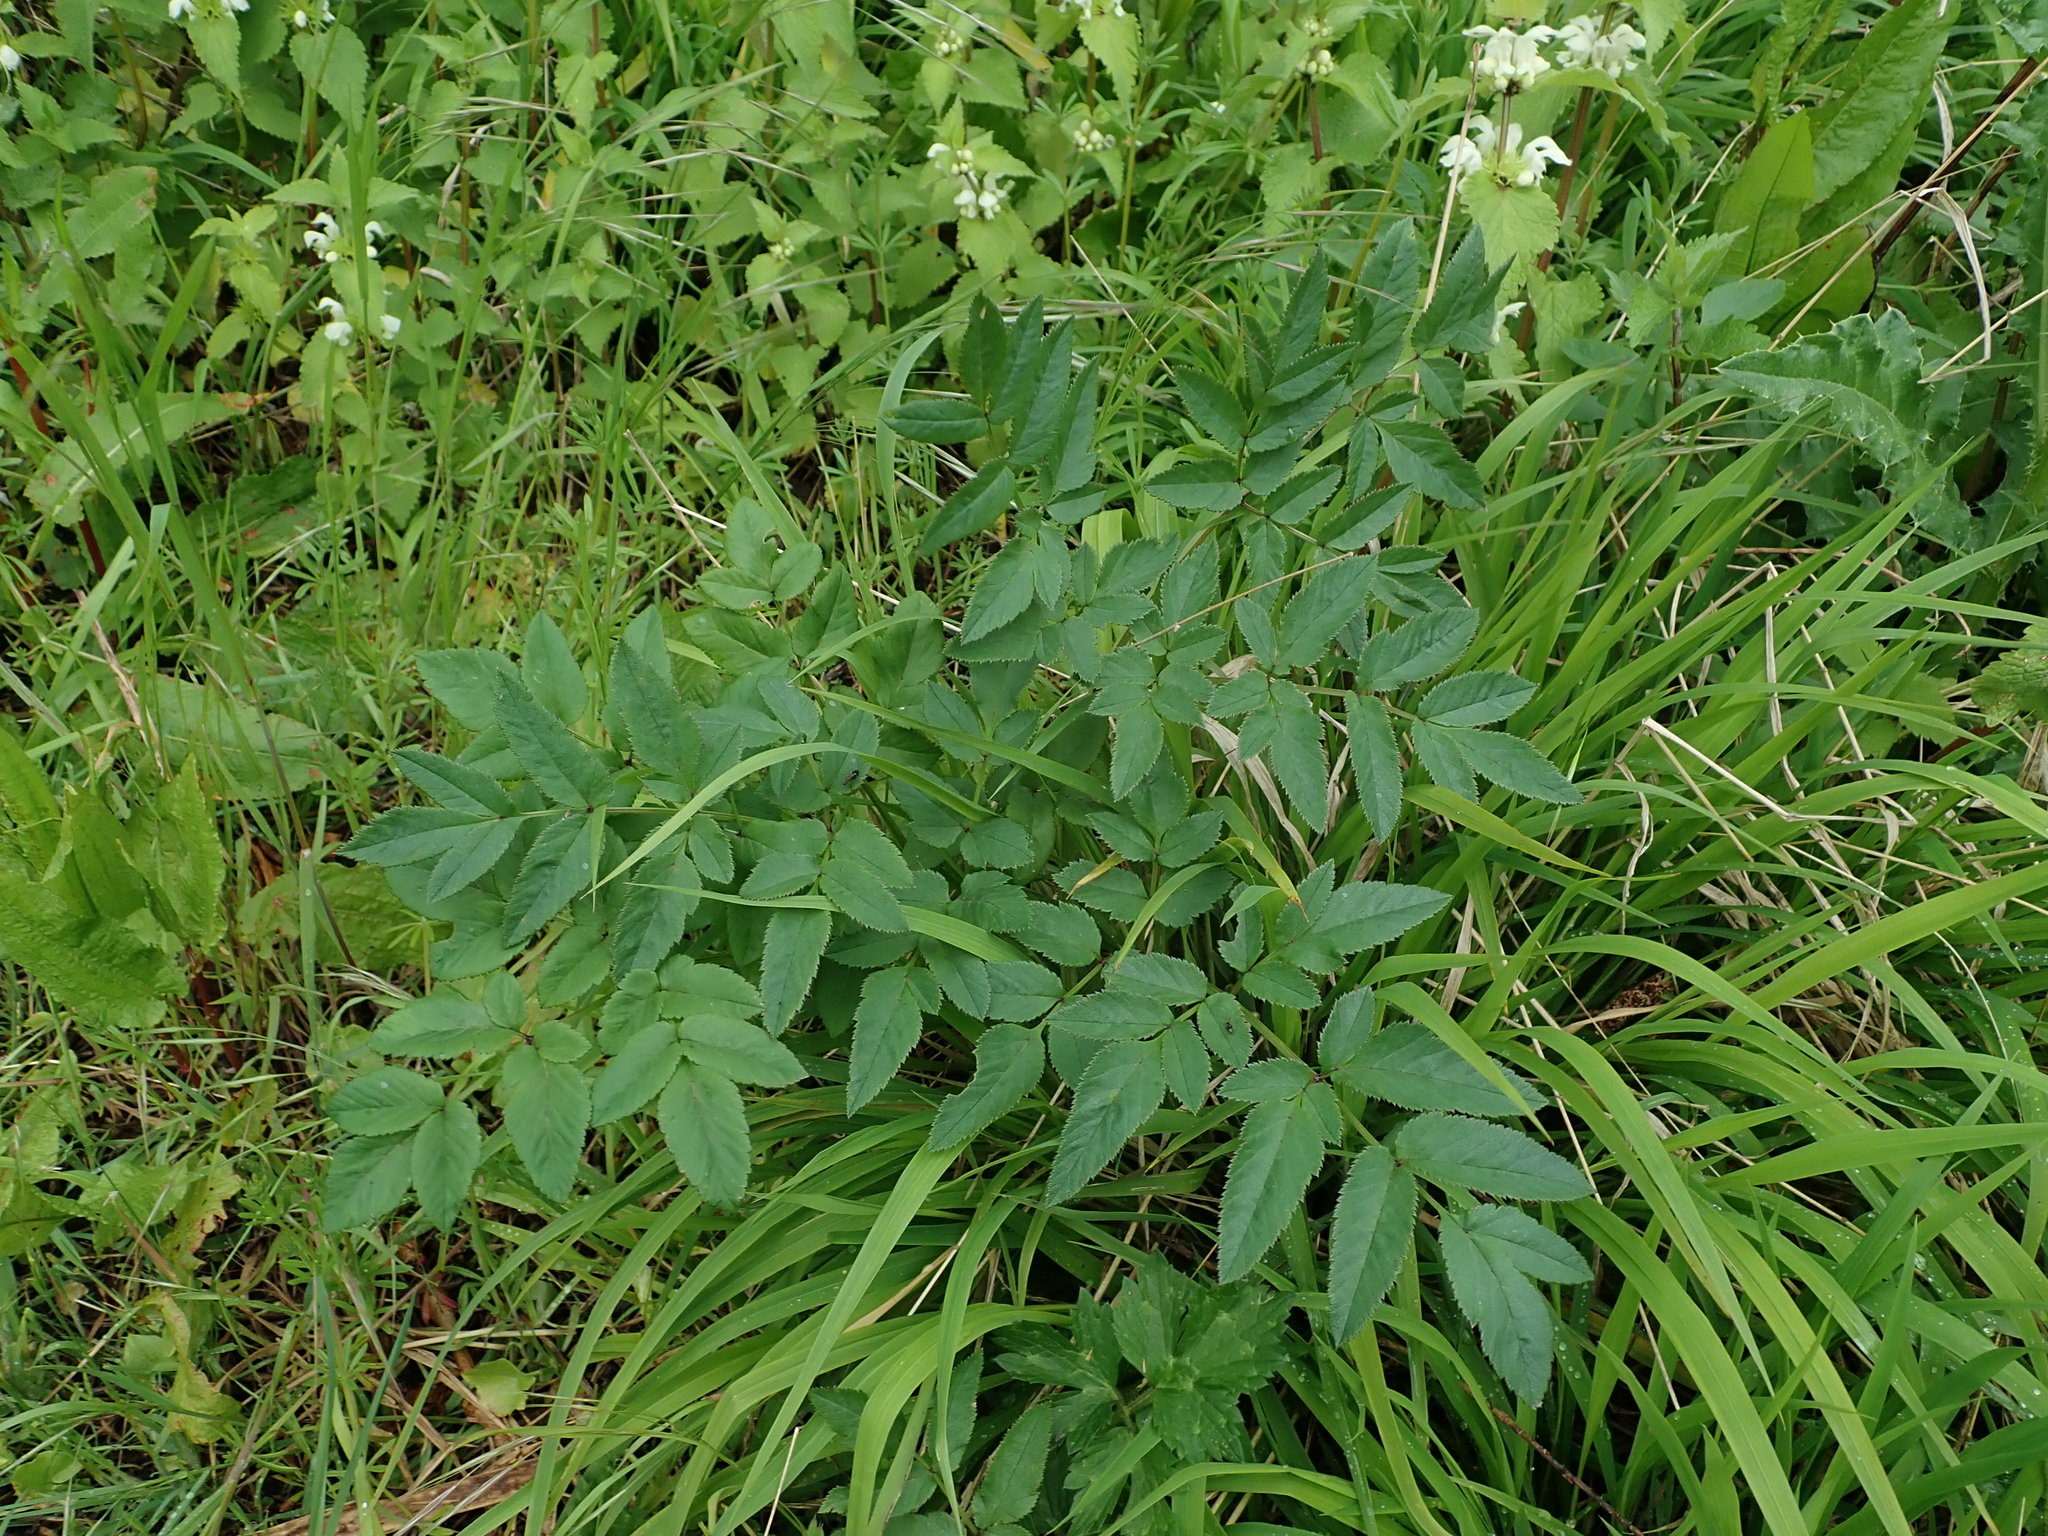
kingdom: Plantae
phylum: Tracheophyta
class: Magnoliopsida
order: Apiales
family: Apiaceae
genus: Angelica
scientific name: Angelica sylvestris
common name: Wild angelica
